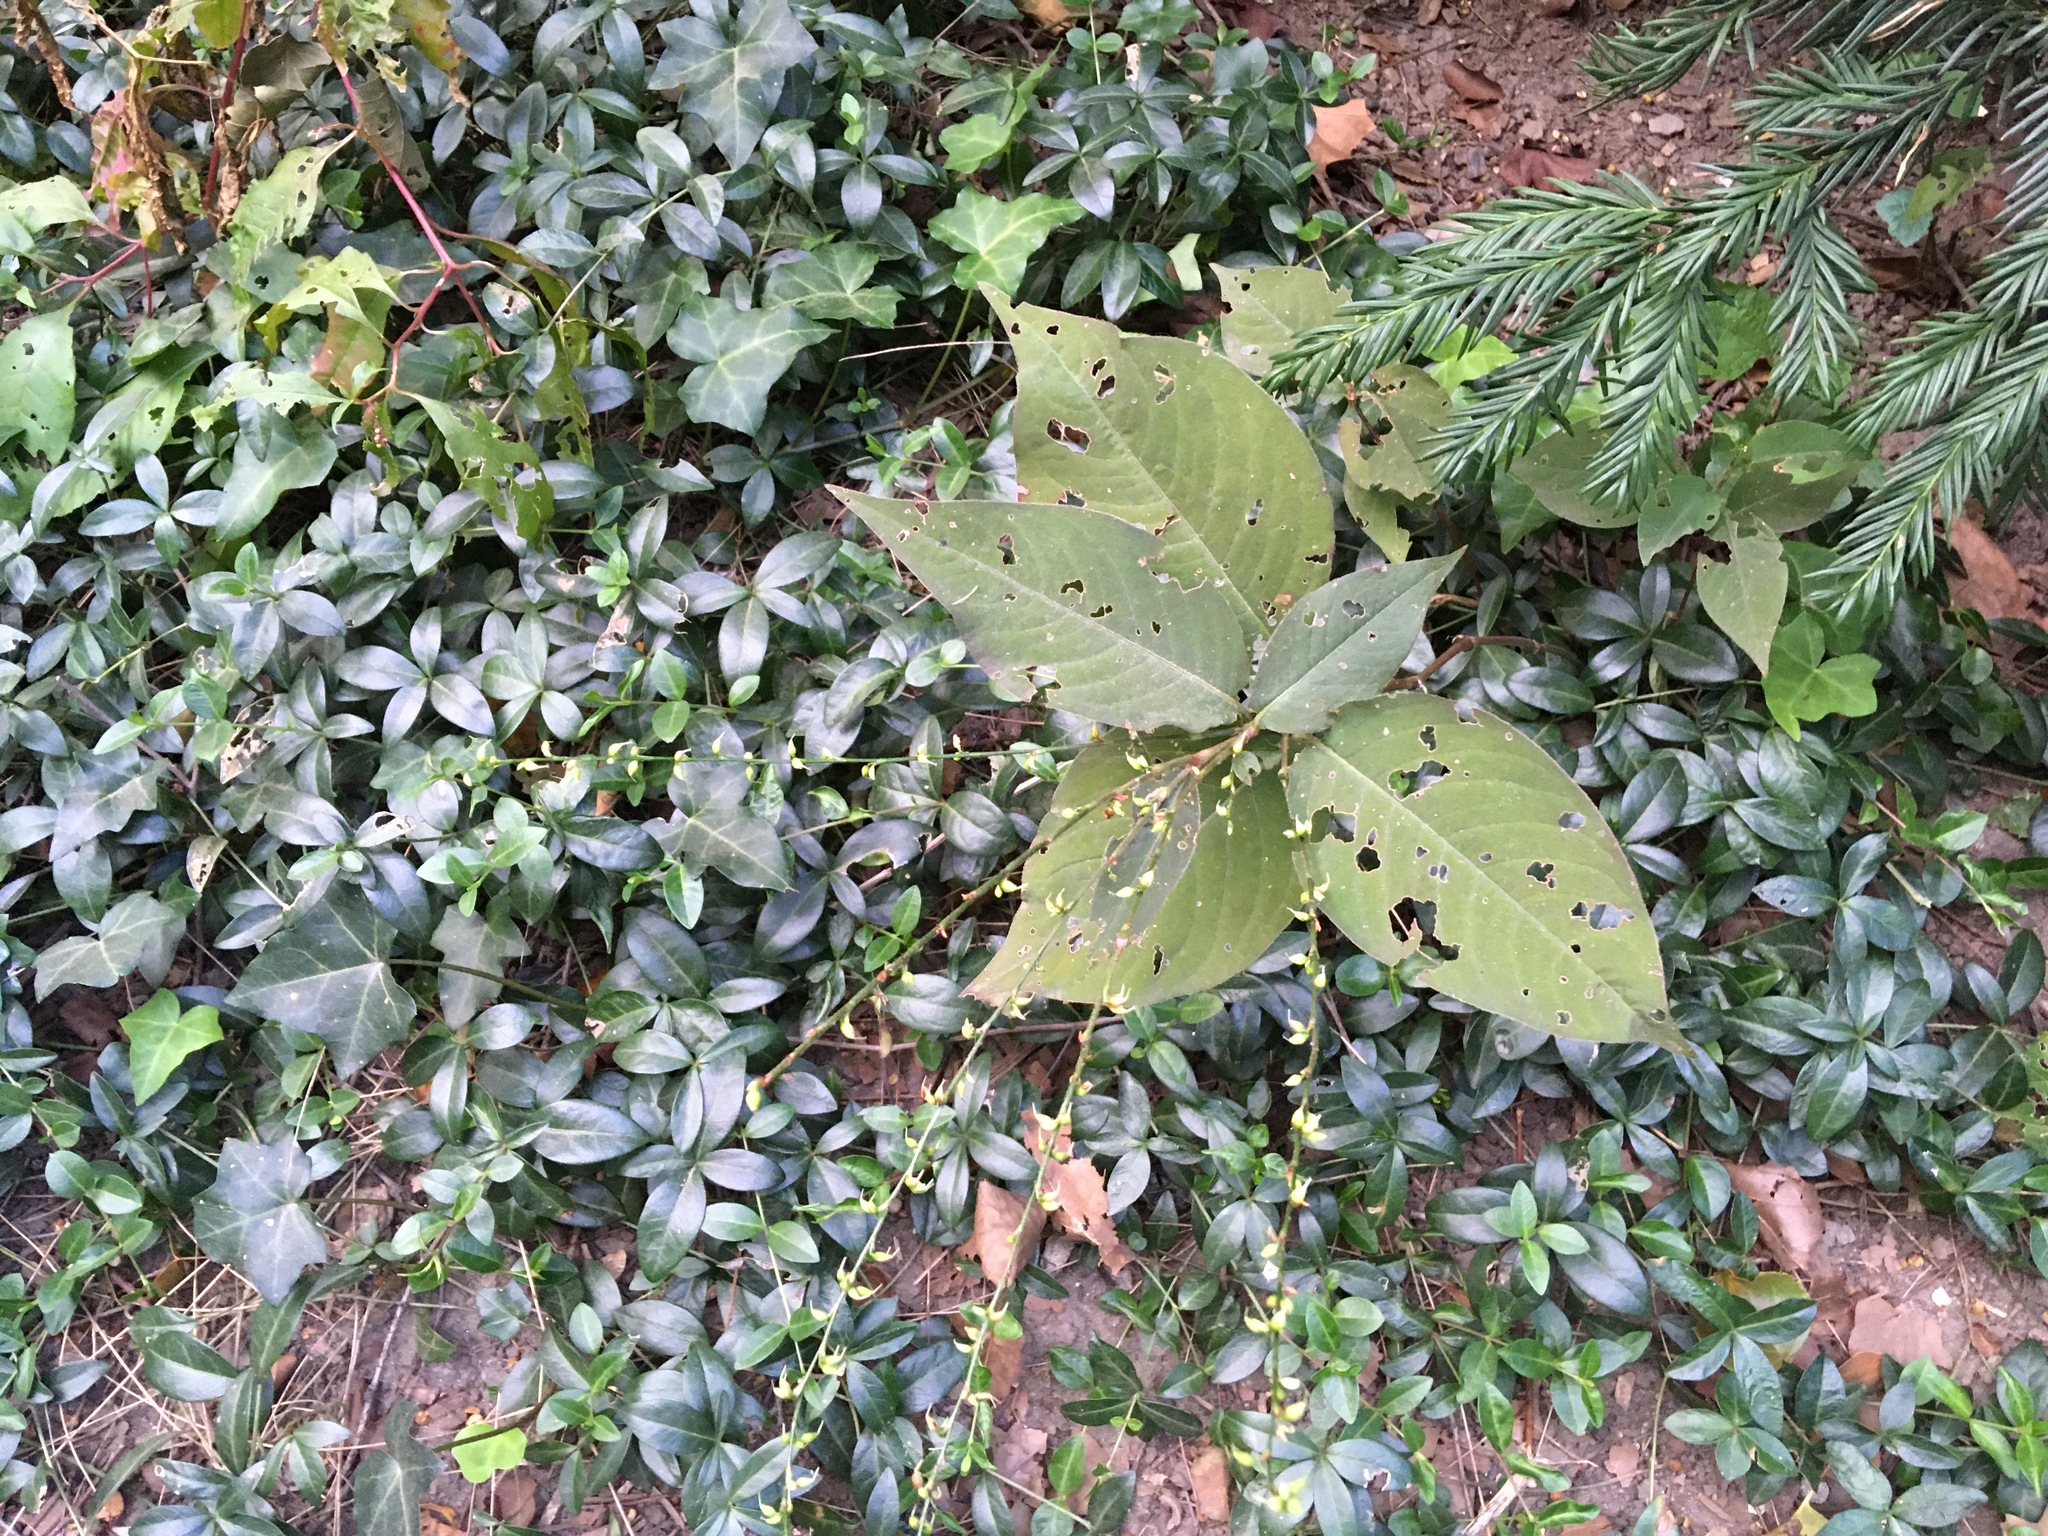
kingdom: Plantae
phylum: Tracheophyta
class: Magnoliopsida
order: Caryophyllales
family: Polygonaceae
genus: Persicaria
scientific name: Persicaria virginiana
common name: Jumpseed
